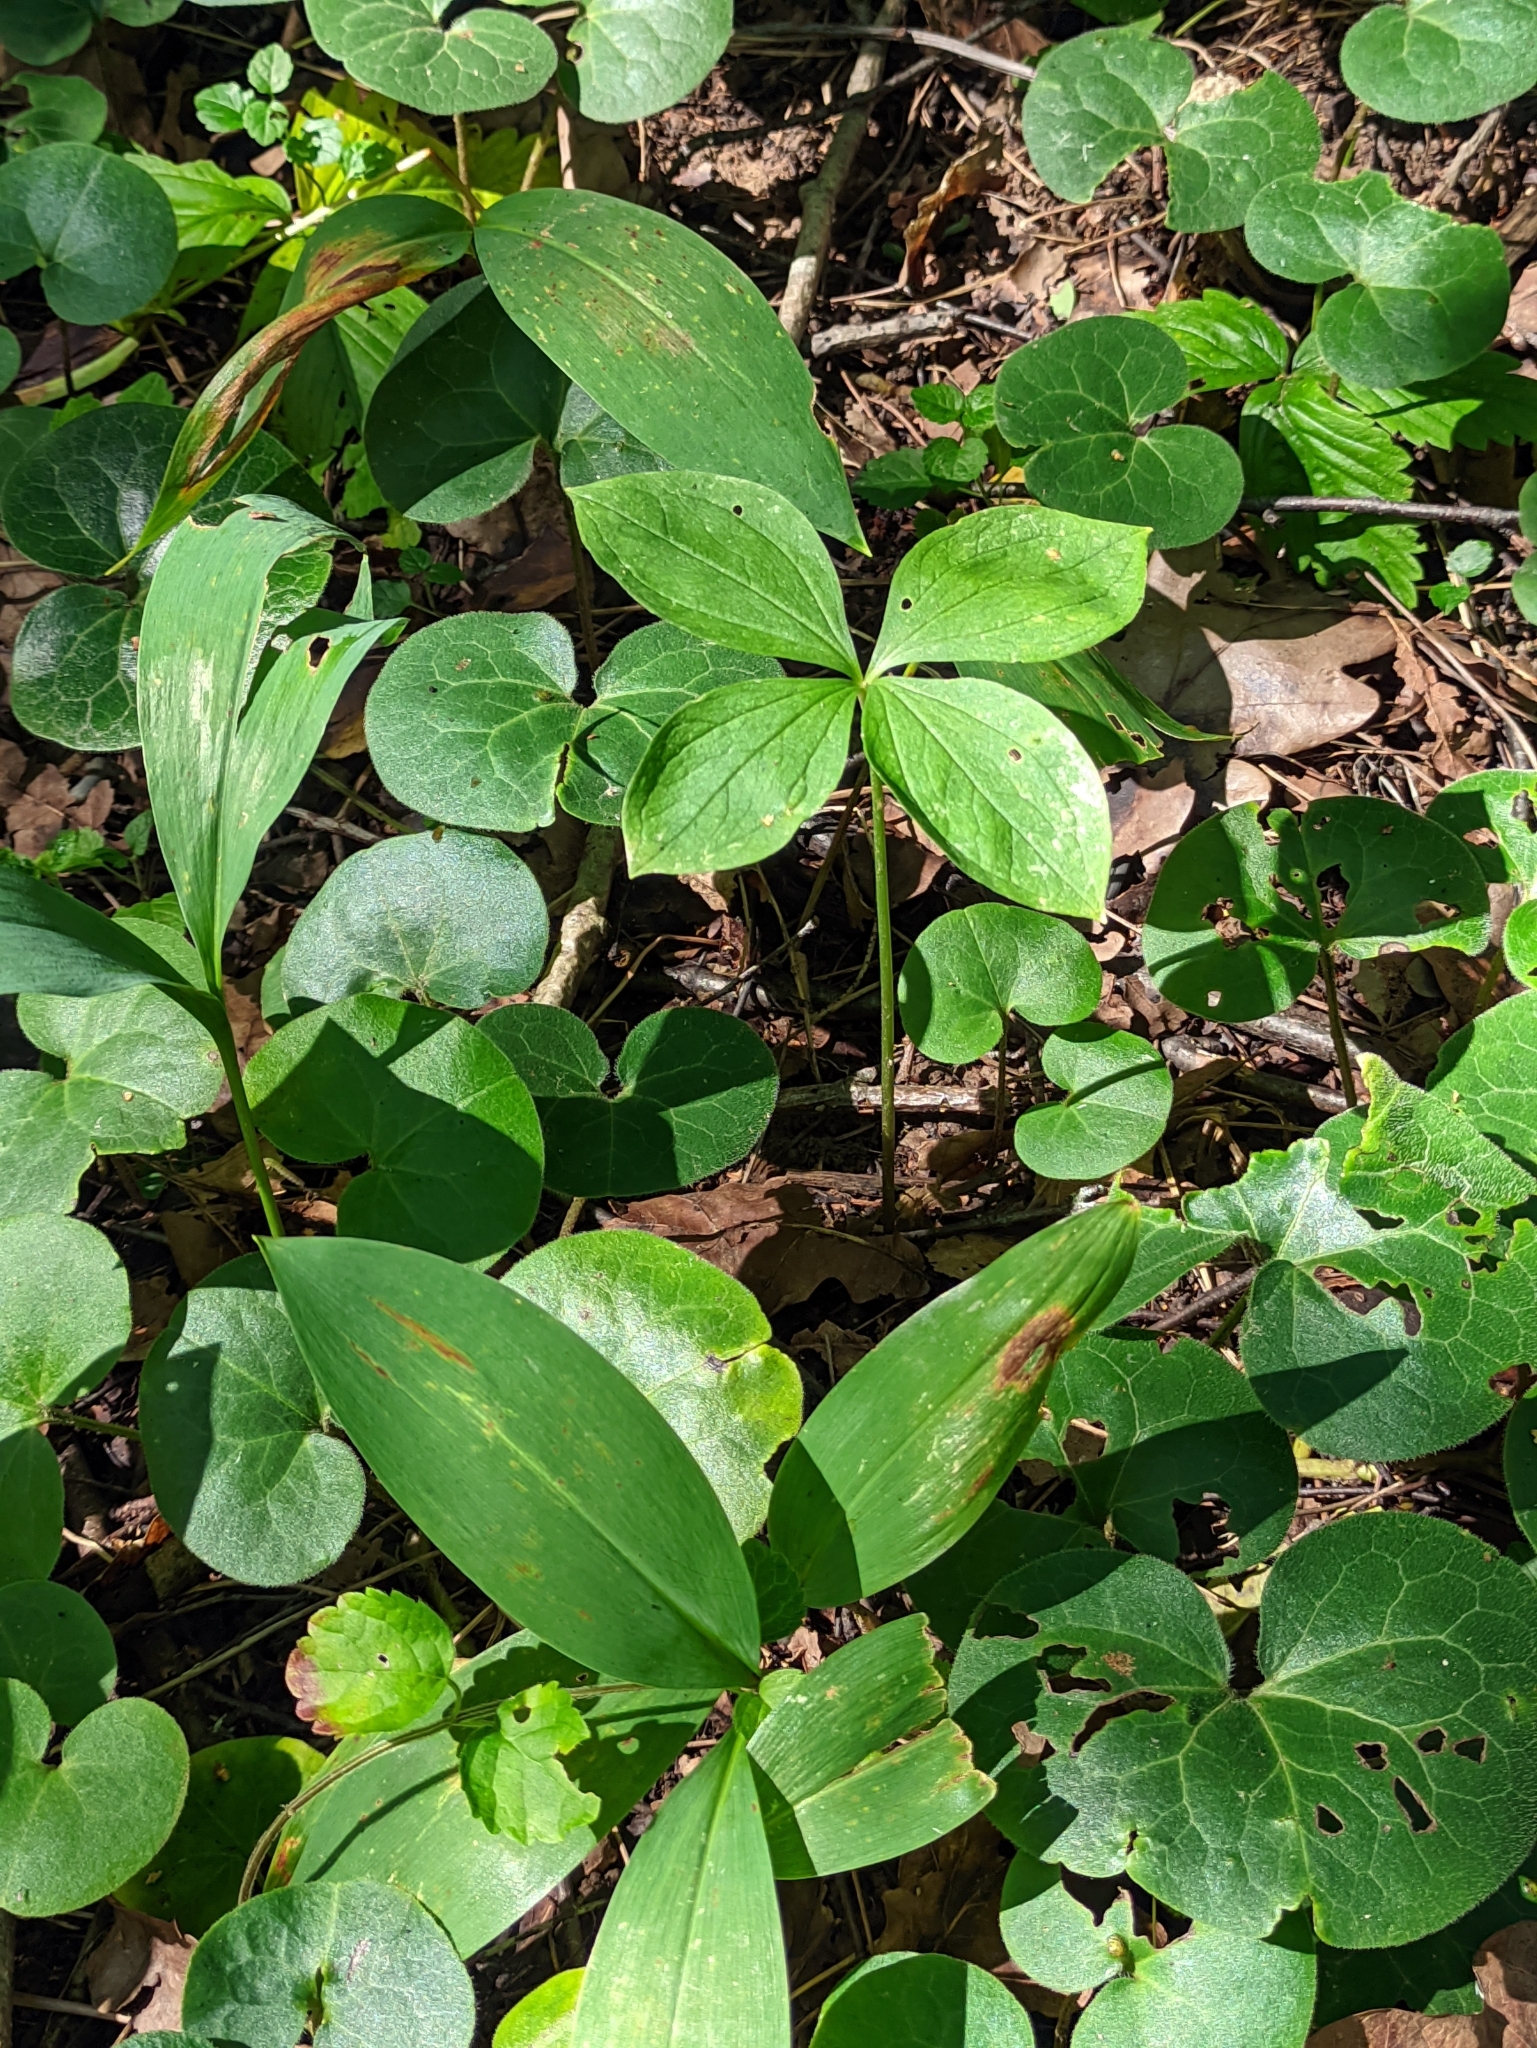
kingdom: Plantae
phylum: Tracheophyta
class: Liliopsida
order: Liliales
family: Melanthiaceae
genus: Paris
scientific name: Paris quadrifolia
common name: Herb-paris
